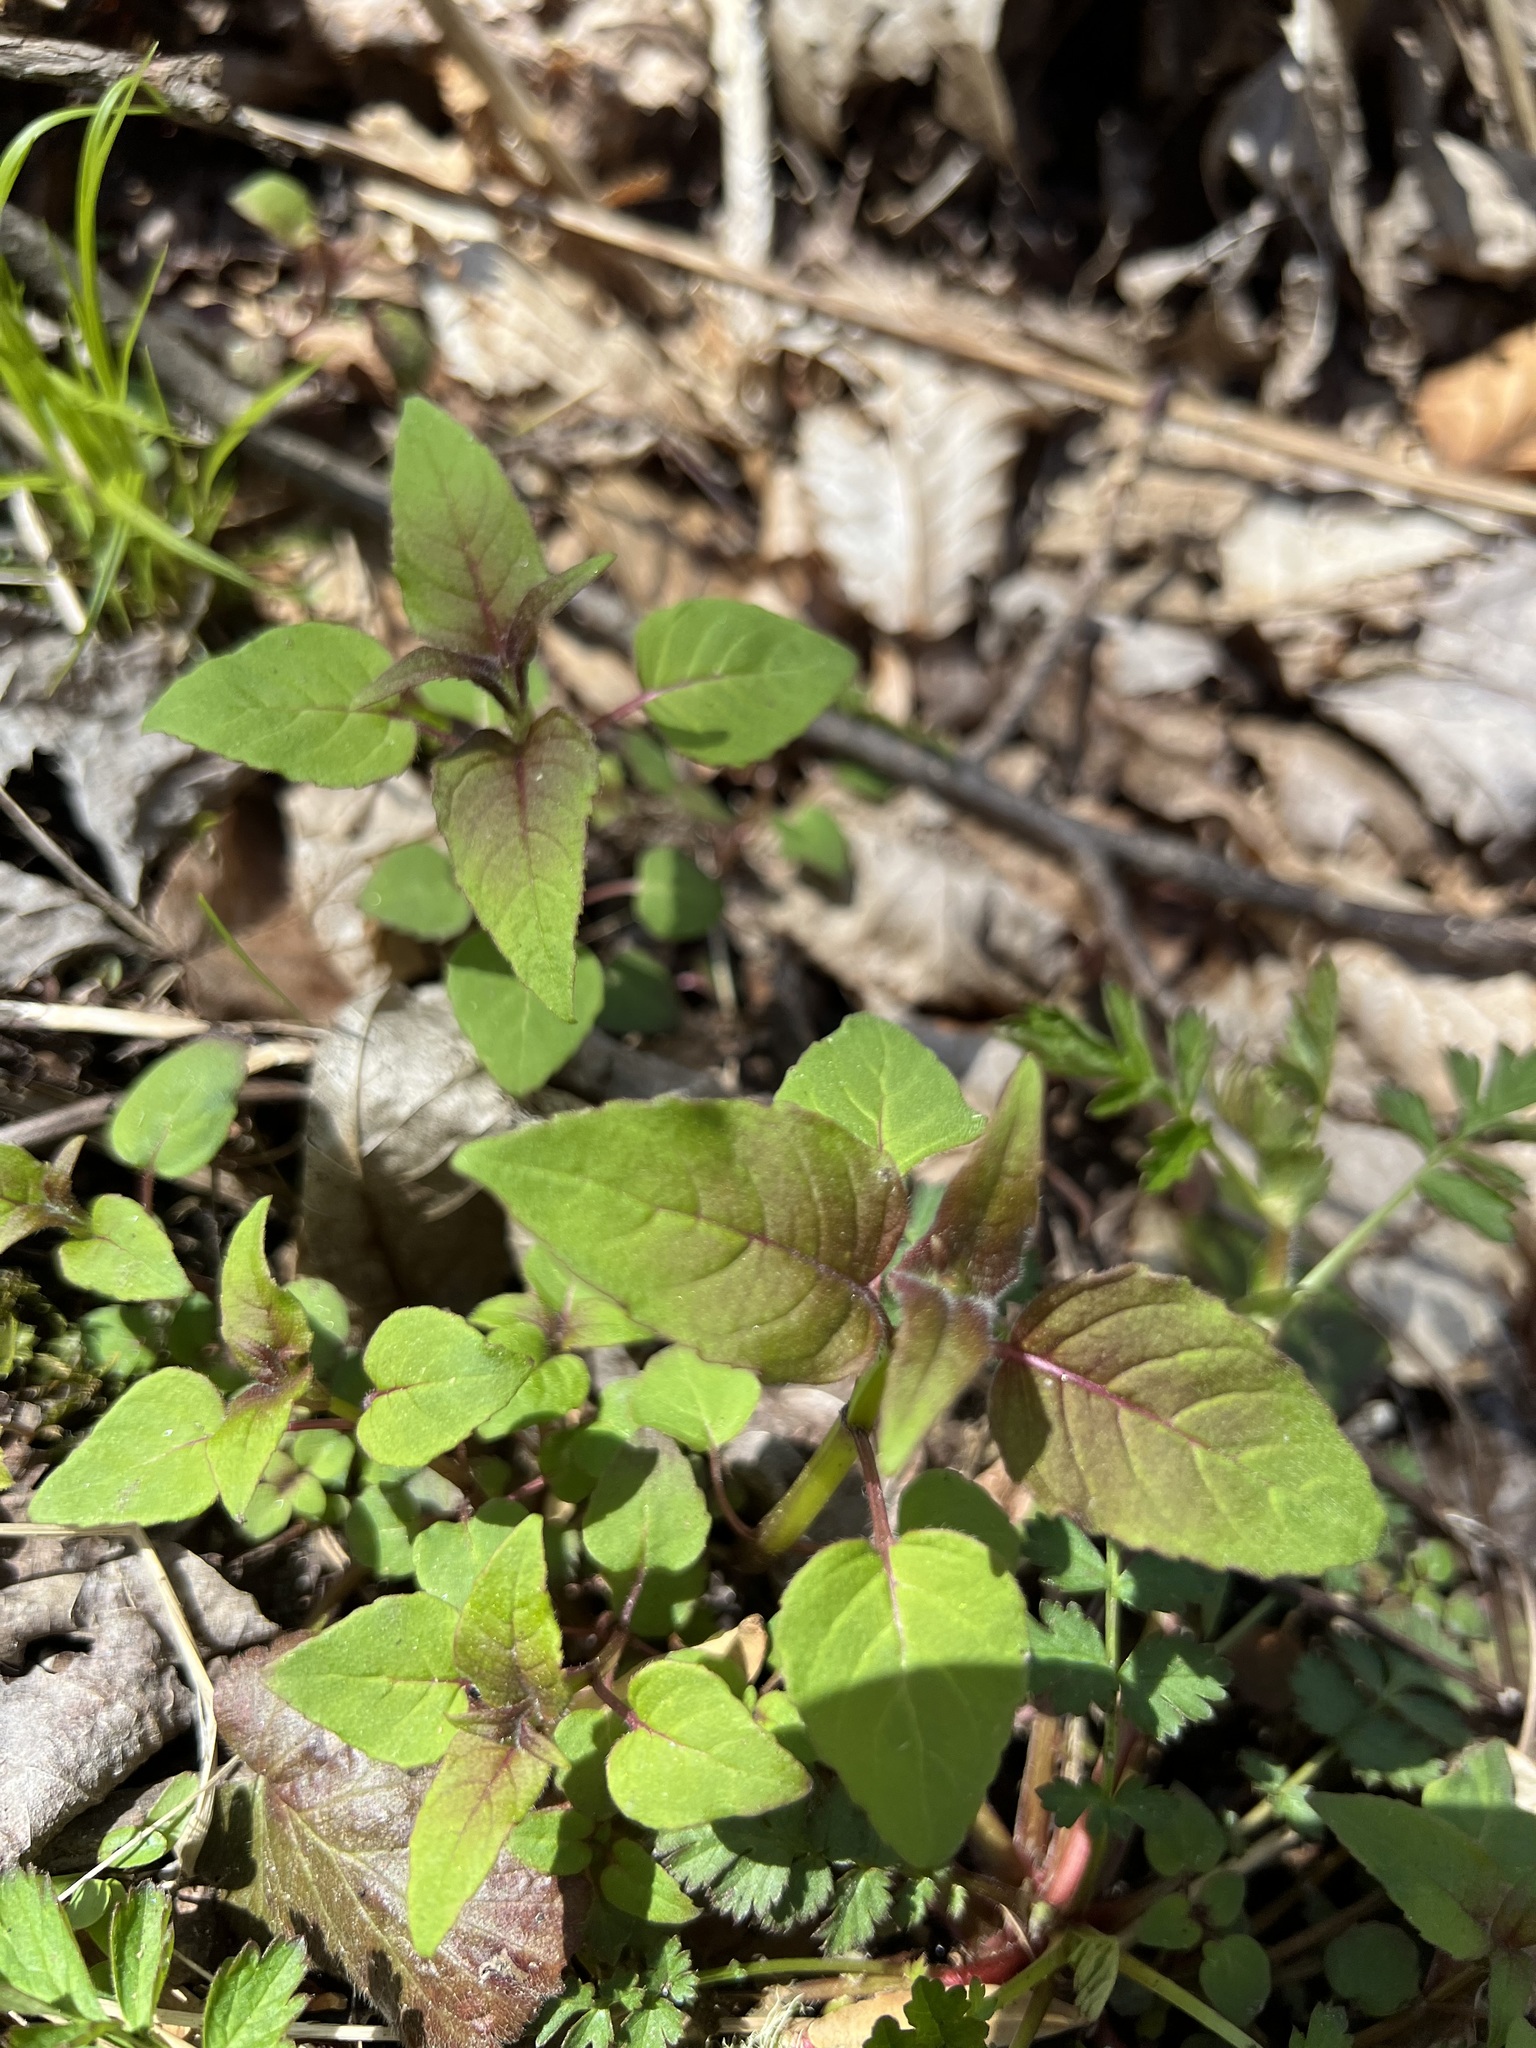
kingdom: Plantae
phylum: Tracheophyta
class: Magnoliopsida
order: Lamiales
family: Lamiaceae
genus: Monarda
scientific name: Monarda fistulosa
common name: Purple beebalm
